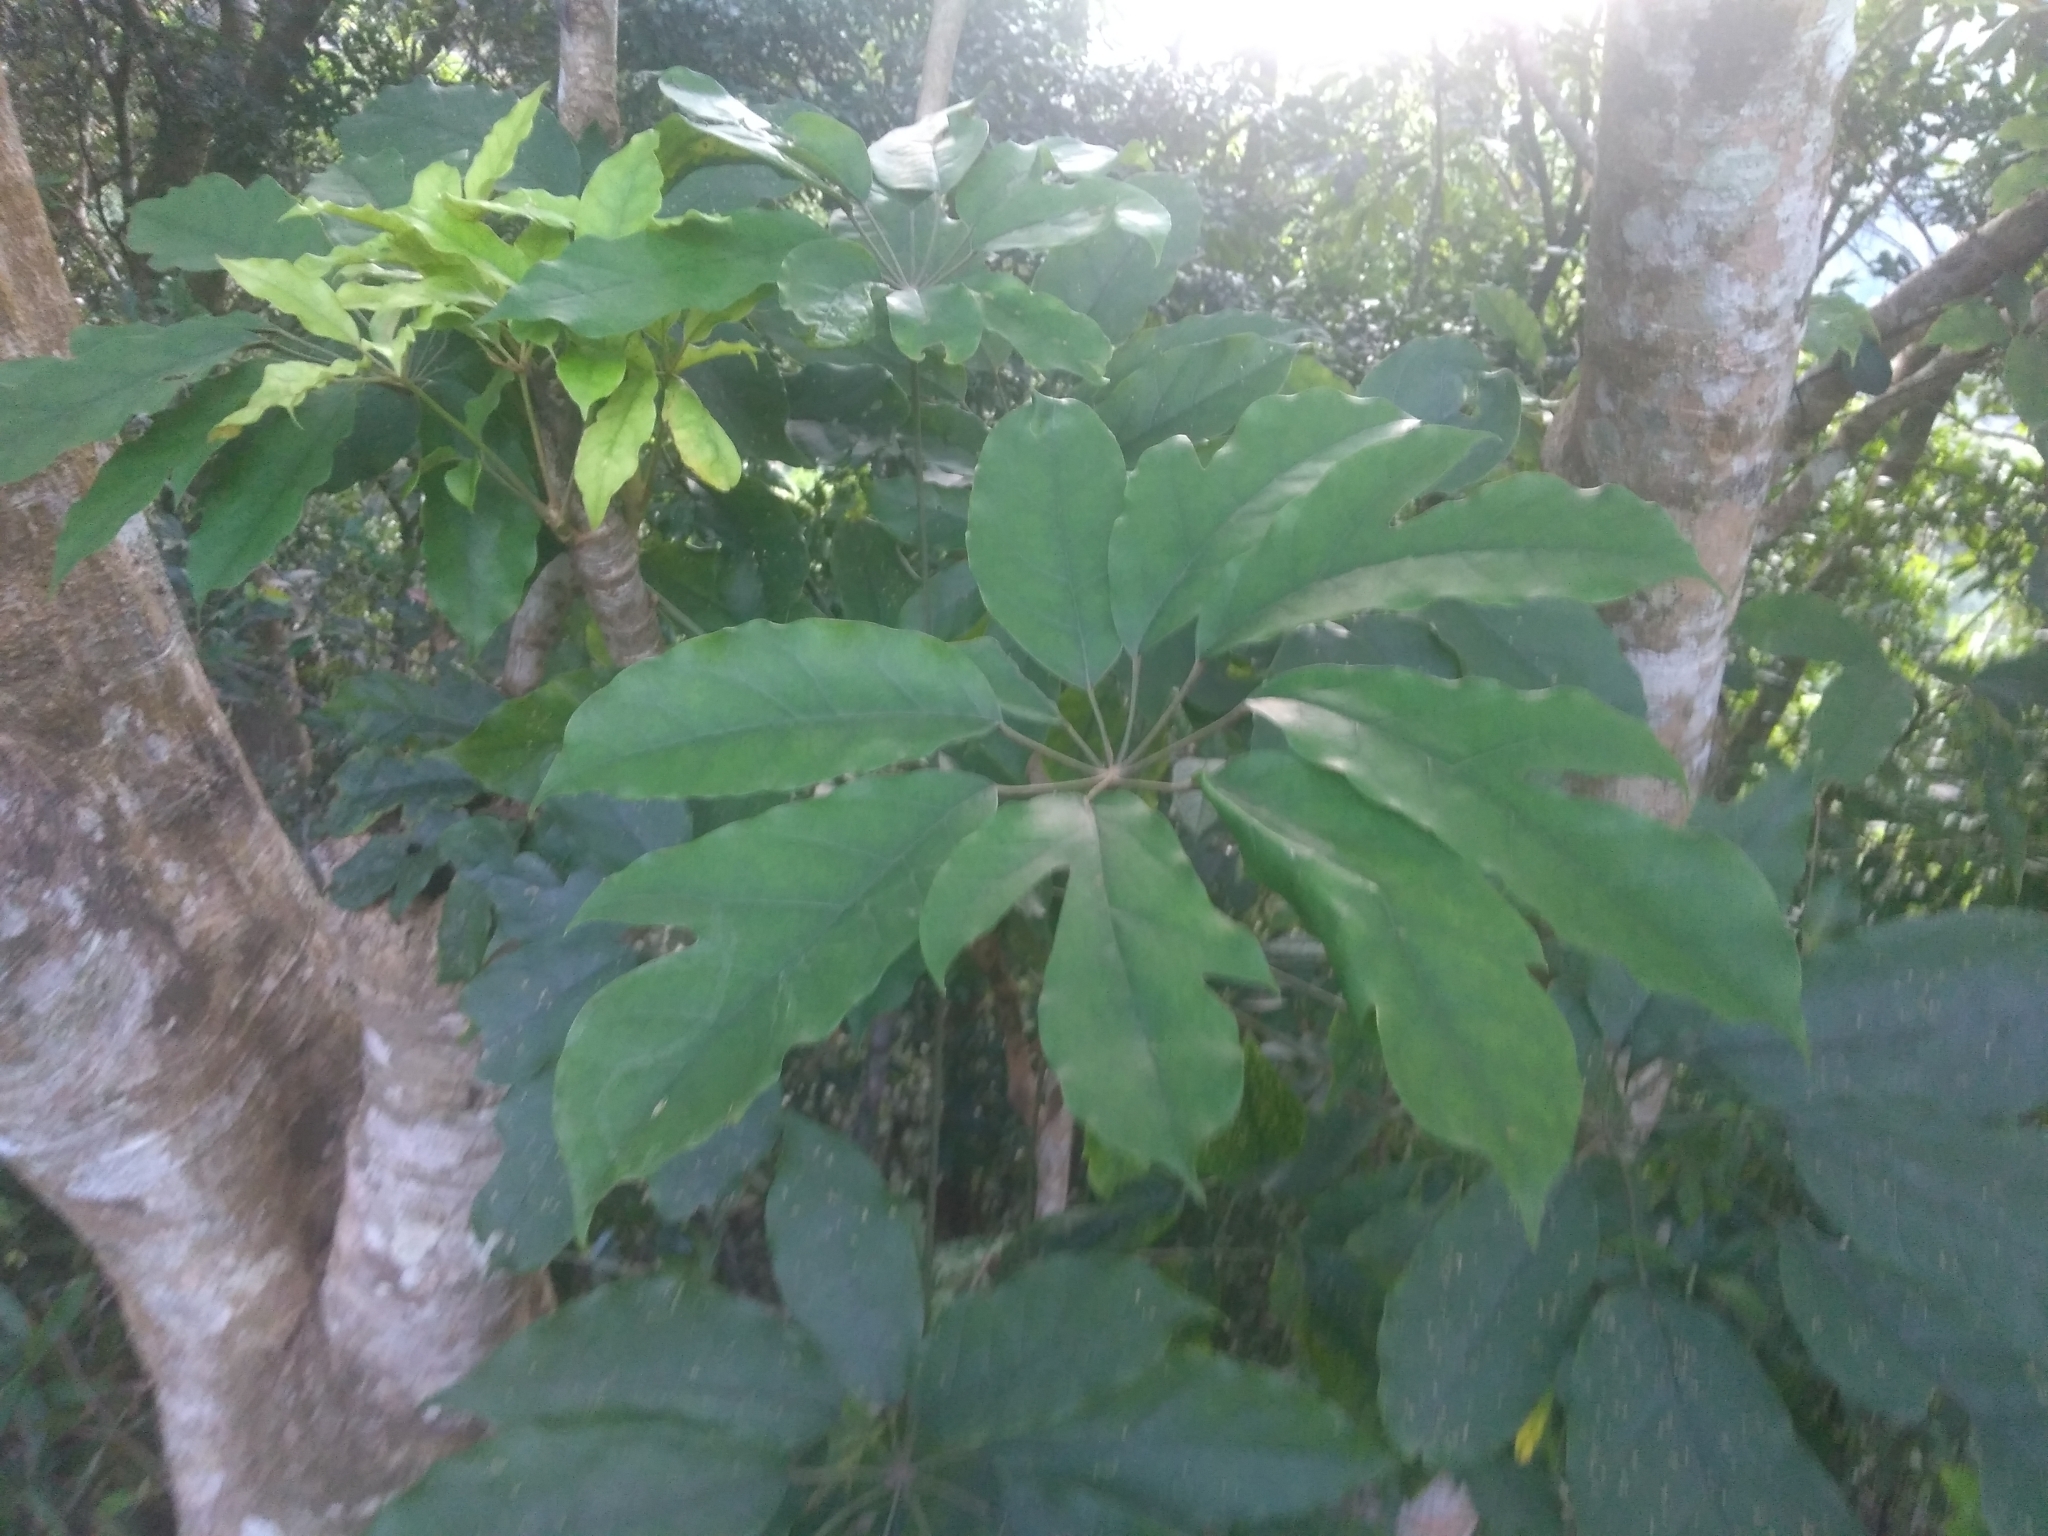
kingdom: Plantae
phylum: Tracheophyta
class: Magnoliopsida
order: Apiales
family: Araliaceae
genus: Heptapleurum
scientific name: Heptapleurum heptaphyllum
